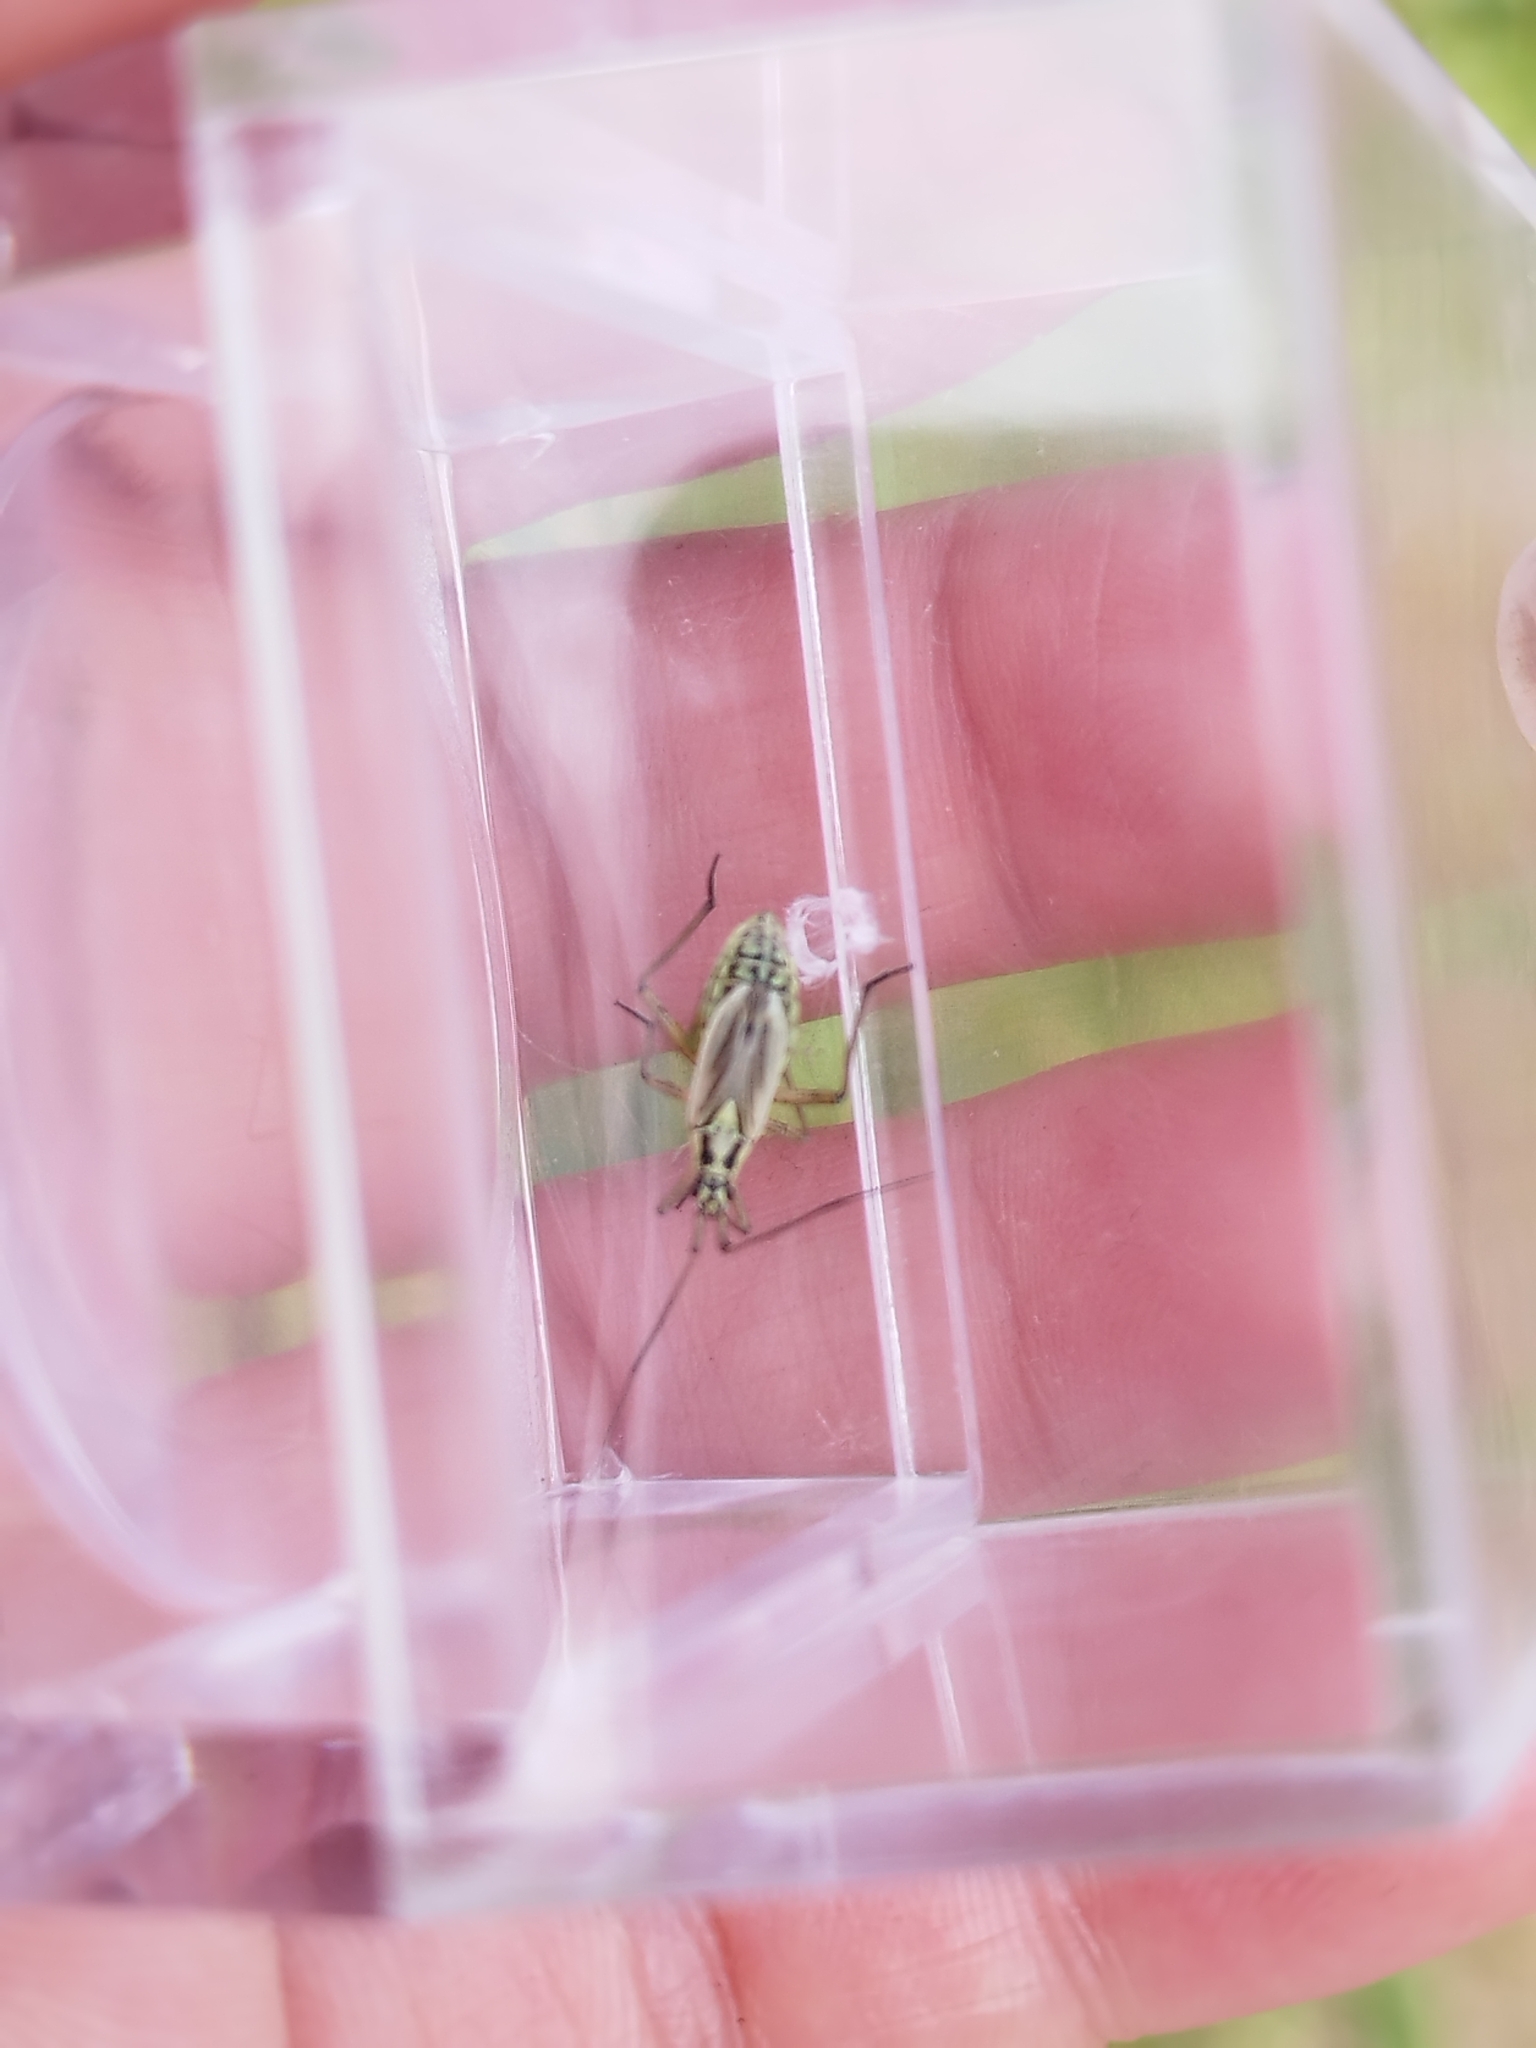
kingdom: Animalia
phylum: Arthropoda
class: Insecta
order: Hemiptera
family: Miridae
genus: Leptopterna
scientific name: Leptopterna dolabrata
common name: Meadow plant bug
